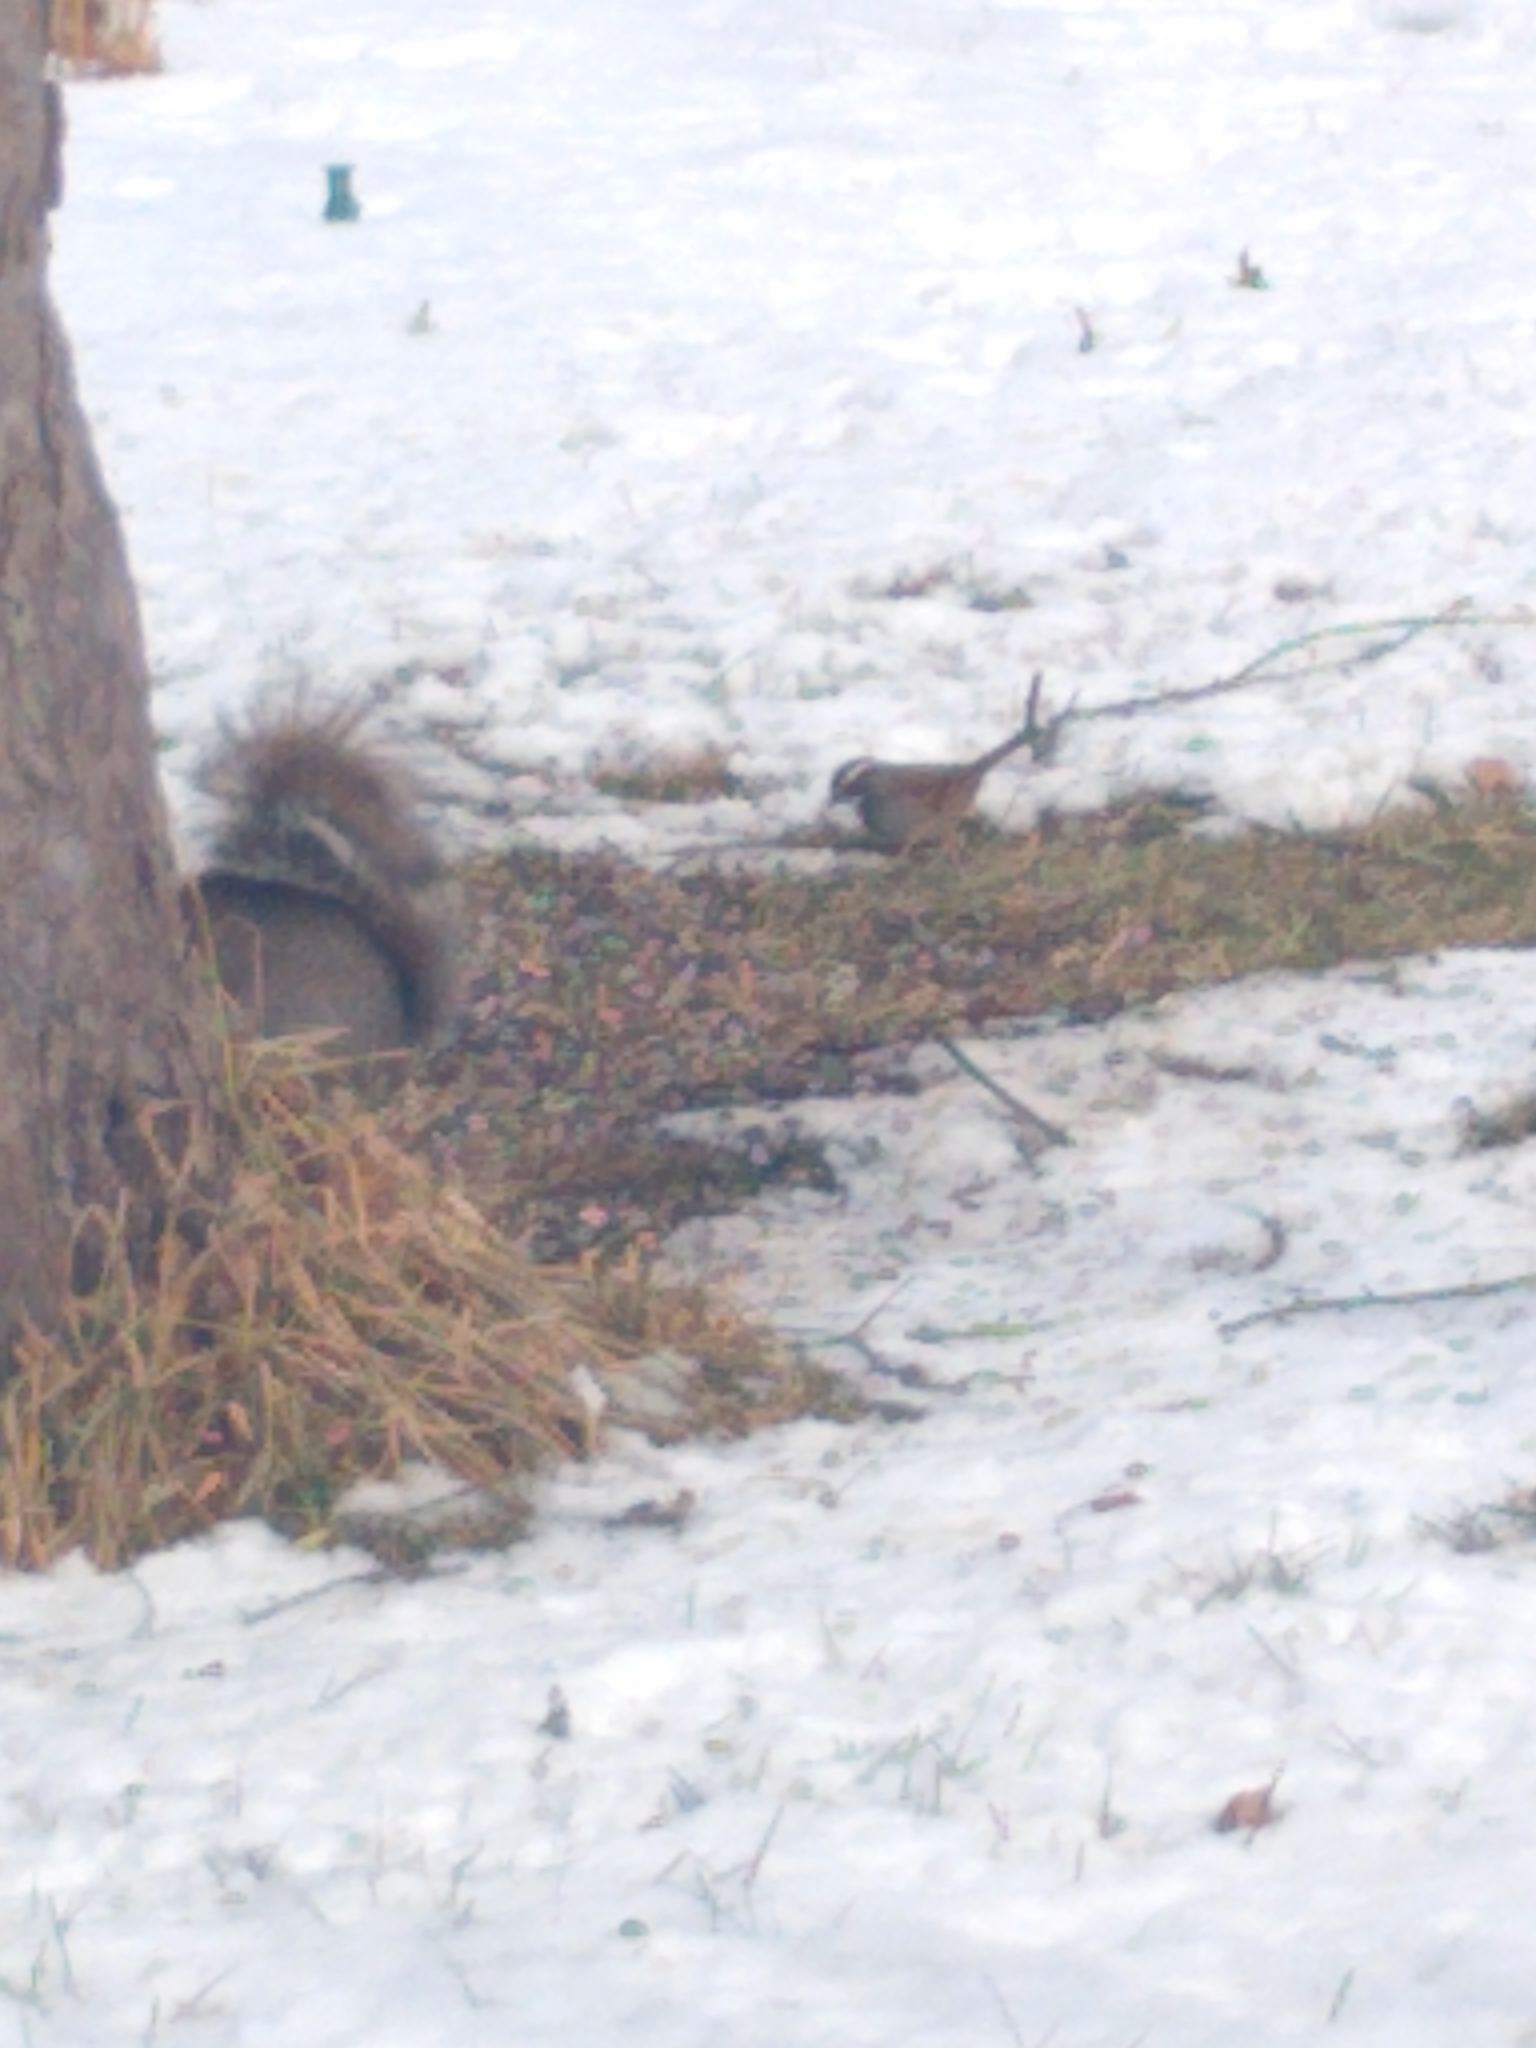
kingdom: Animalia
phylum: Chordata
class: Aves
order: Passeriformes
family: Passerellidae
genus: Zonotrichia
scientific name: Zonotrichia albicollis
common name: White-throated sparrow
